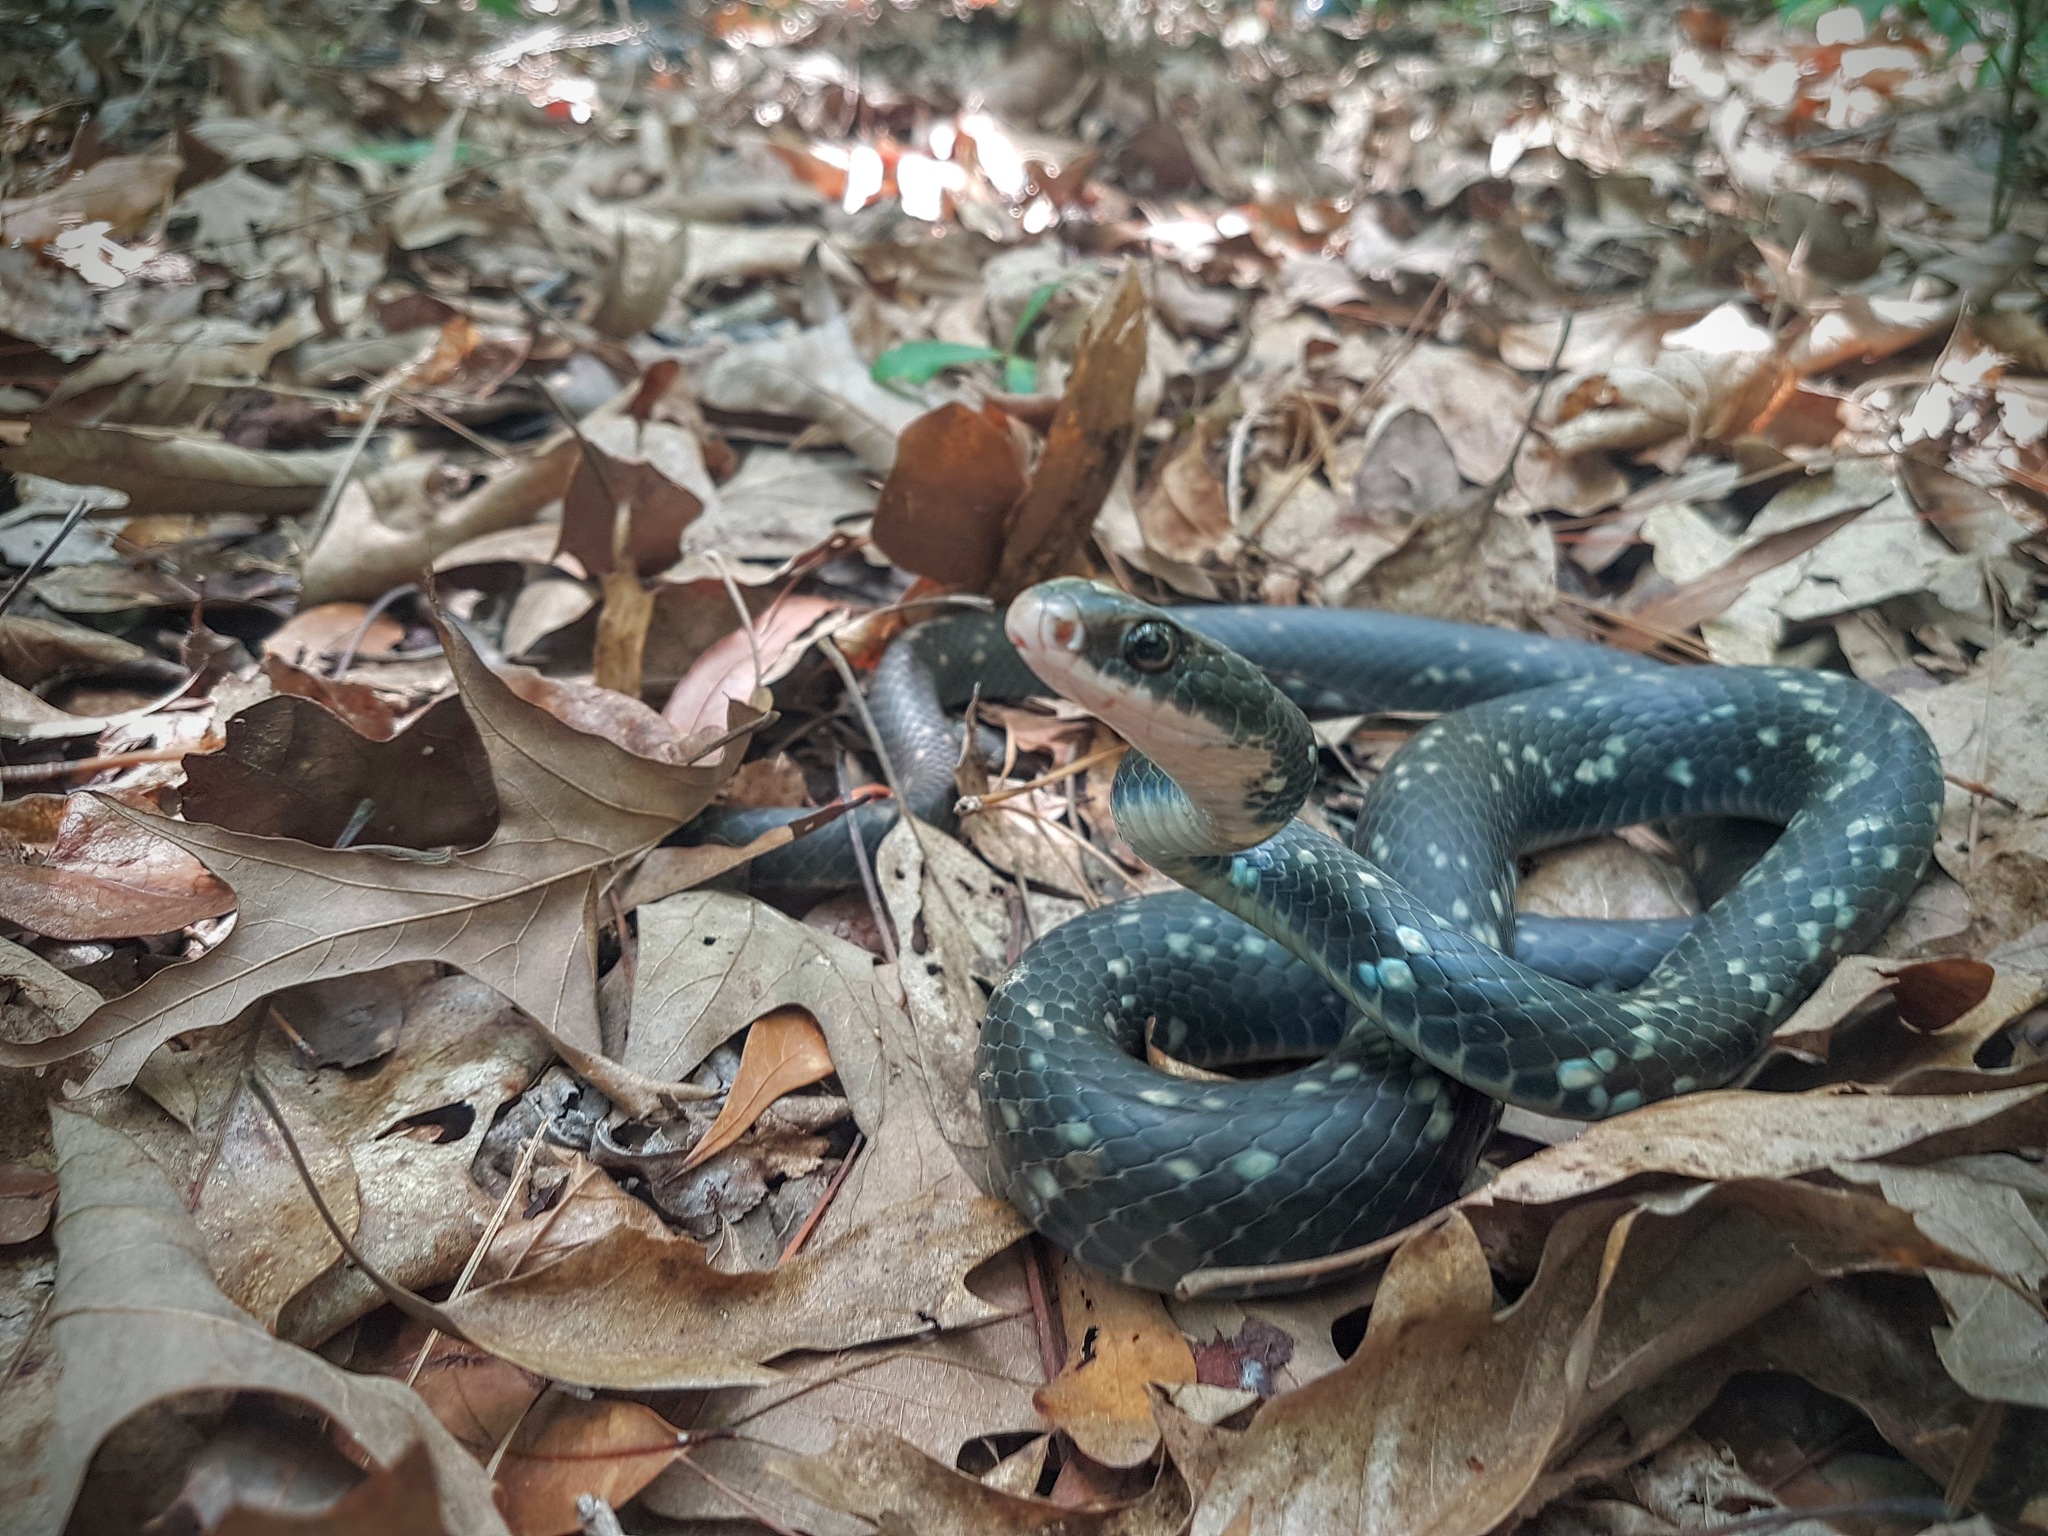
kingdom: Animalia
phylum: Chordata
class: Squamata
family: Colubridae
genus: Coluber
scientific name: Coluber constrictor
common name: Eastern racer
